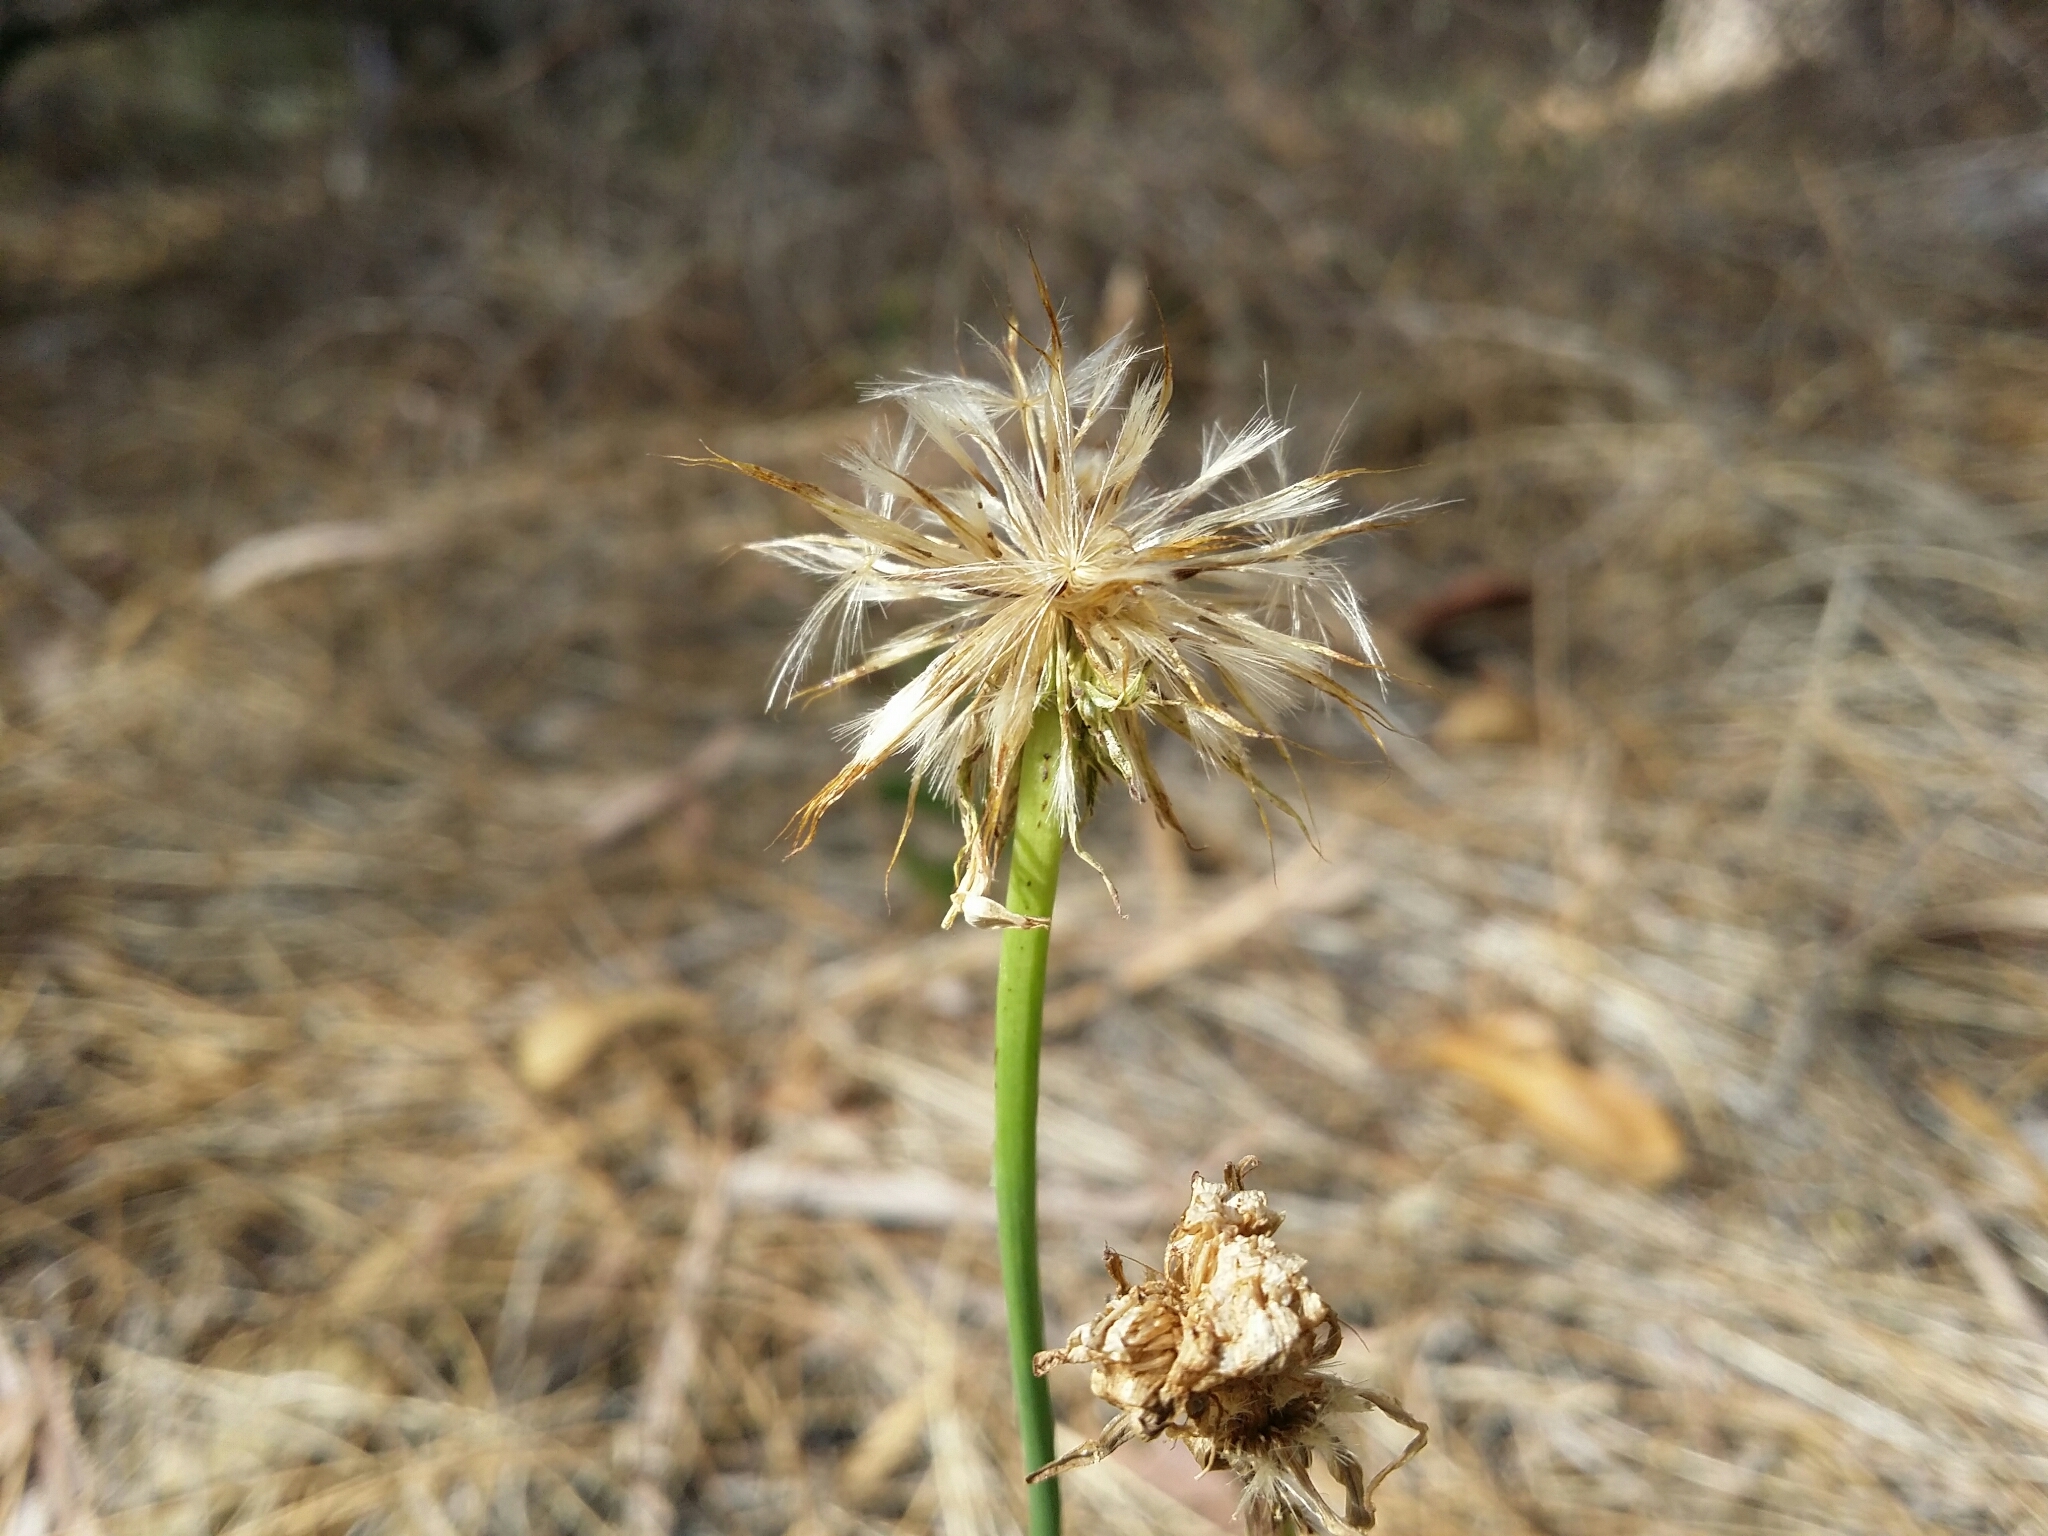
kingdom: Plantae
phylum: Tracheophyta
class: Magnoliopsida
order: Asterales
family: Asteraceae
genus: Hypochaeris
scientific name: Hypochaeris radicata
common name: Flatweed
